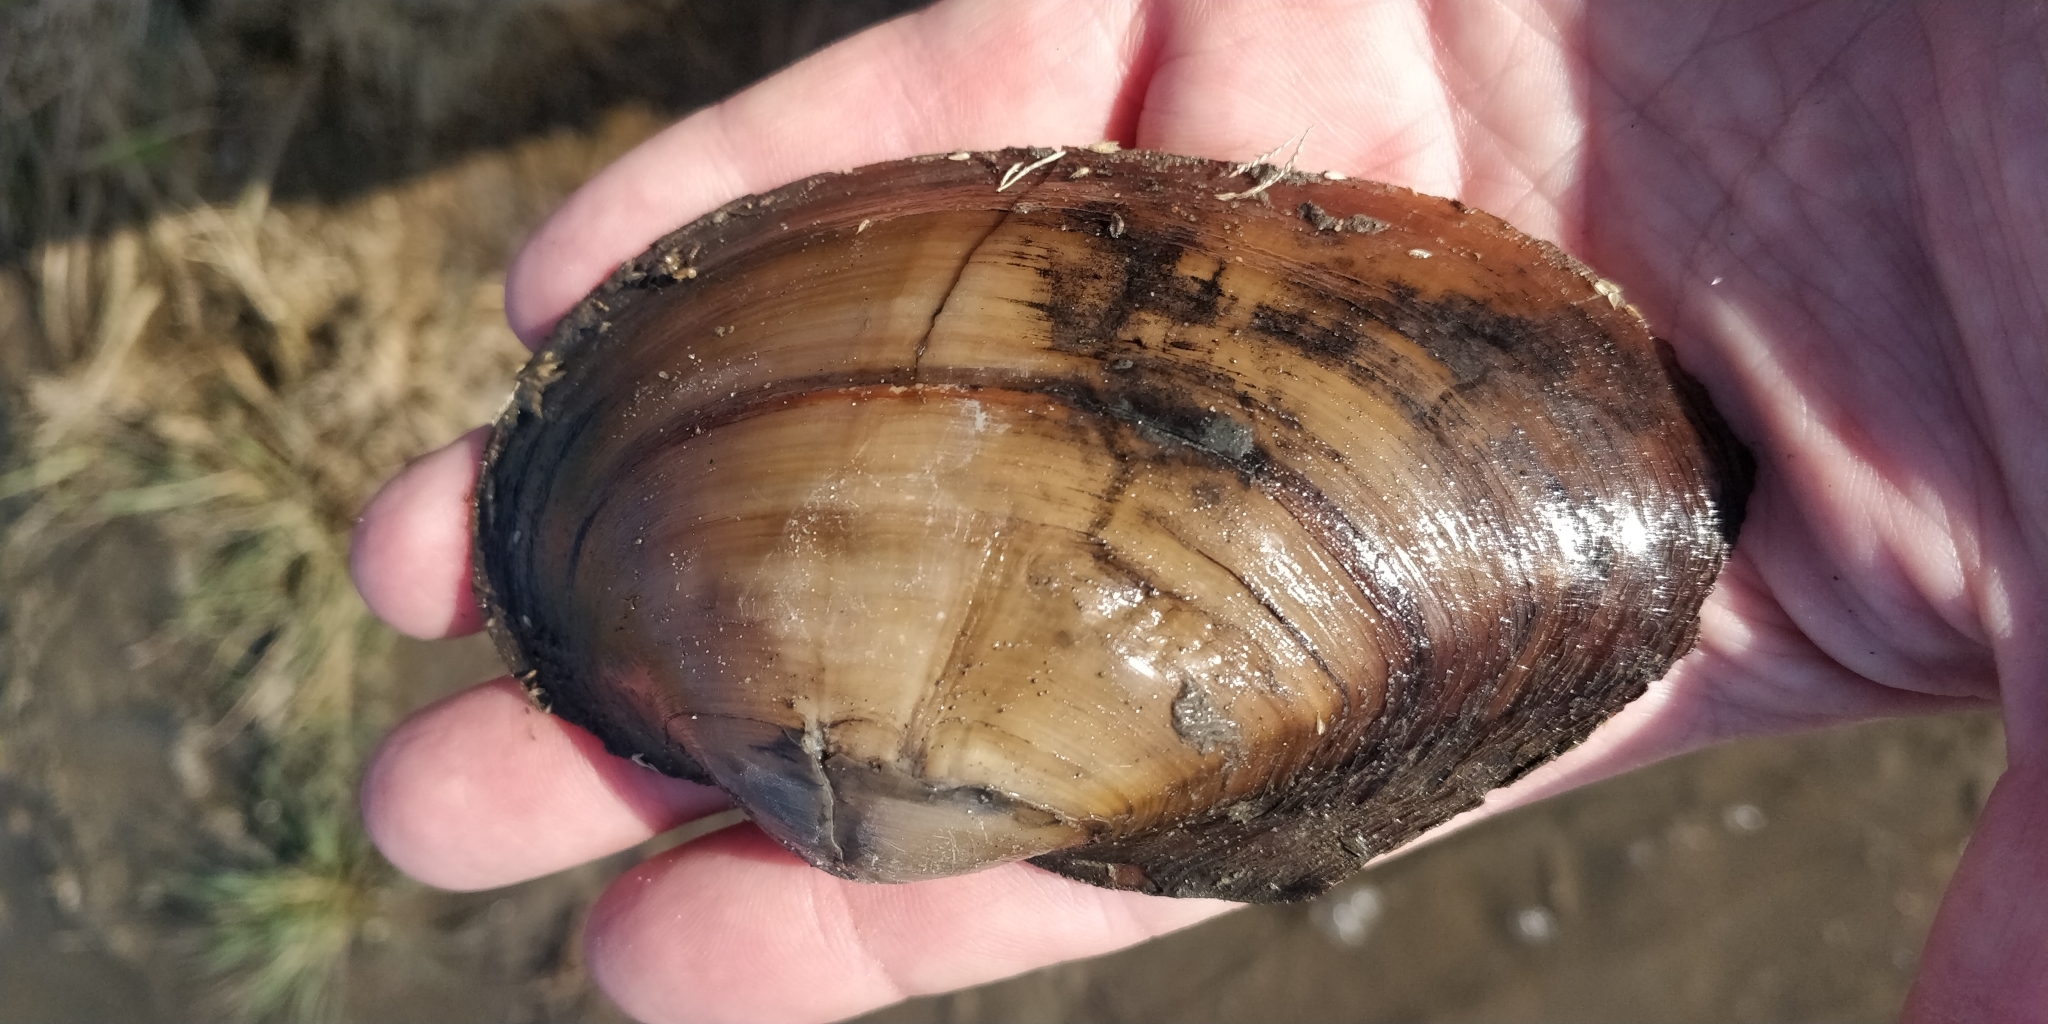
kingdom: Animalia
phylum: Mollusca
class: Bivalvia
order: Unionida
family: Unionidae
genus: Pyganodon
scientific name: Pyganodon grandis
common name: Giant floater
